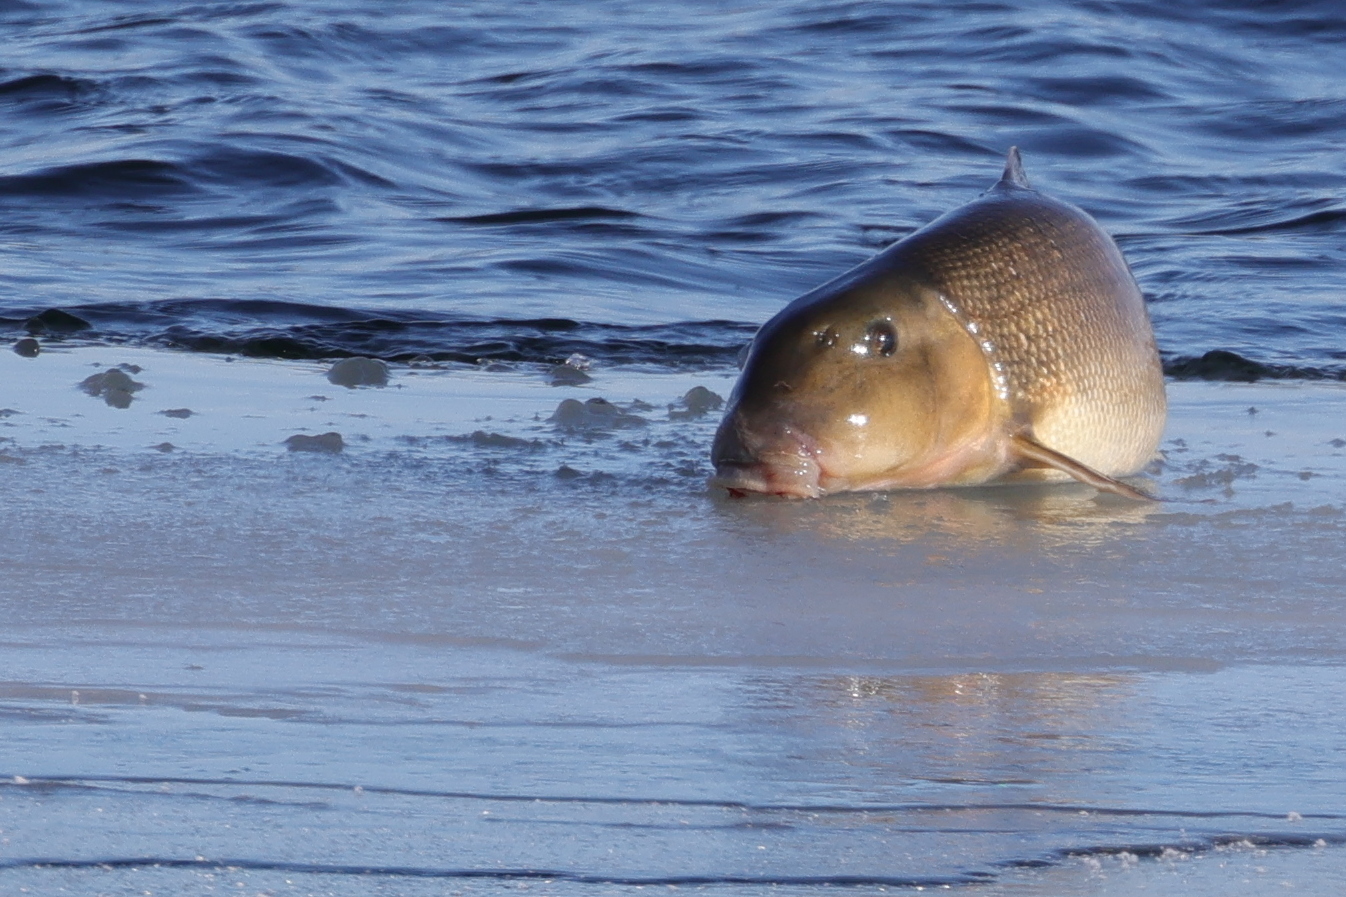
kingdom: Animalia
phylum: Chordata
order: Cypriniformes
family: Catostomidae
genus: Catostomus
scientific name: Catostomus commersonii
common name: White sucker
